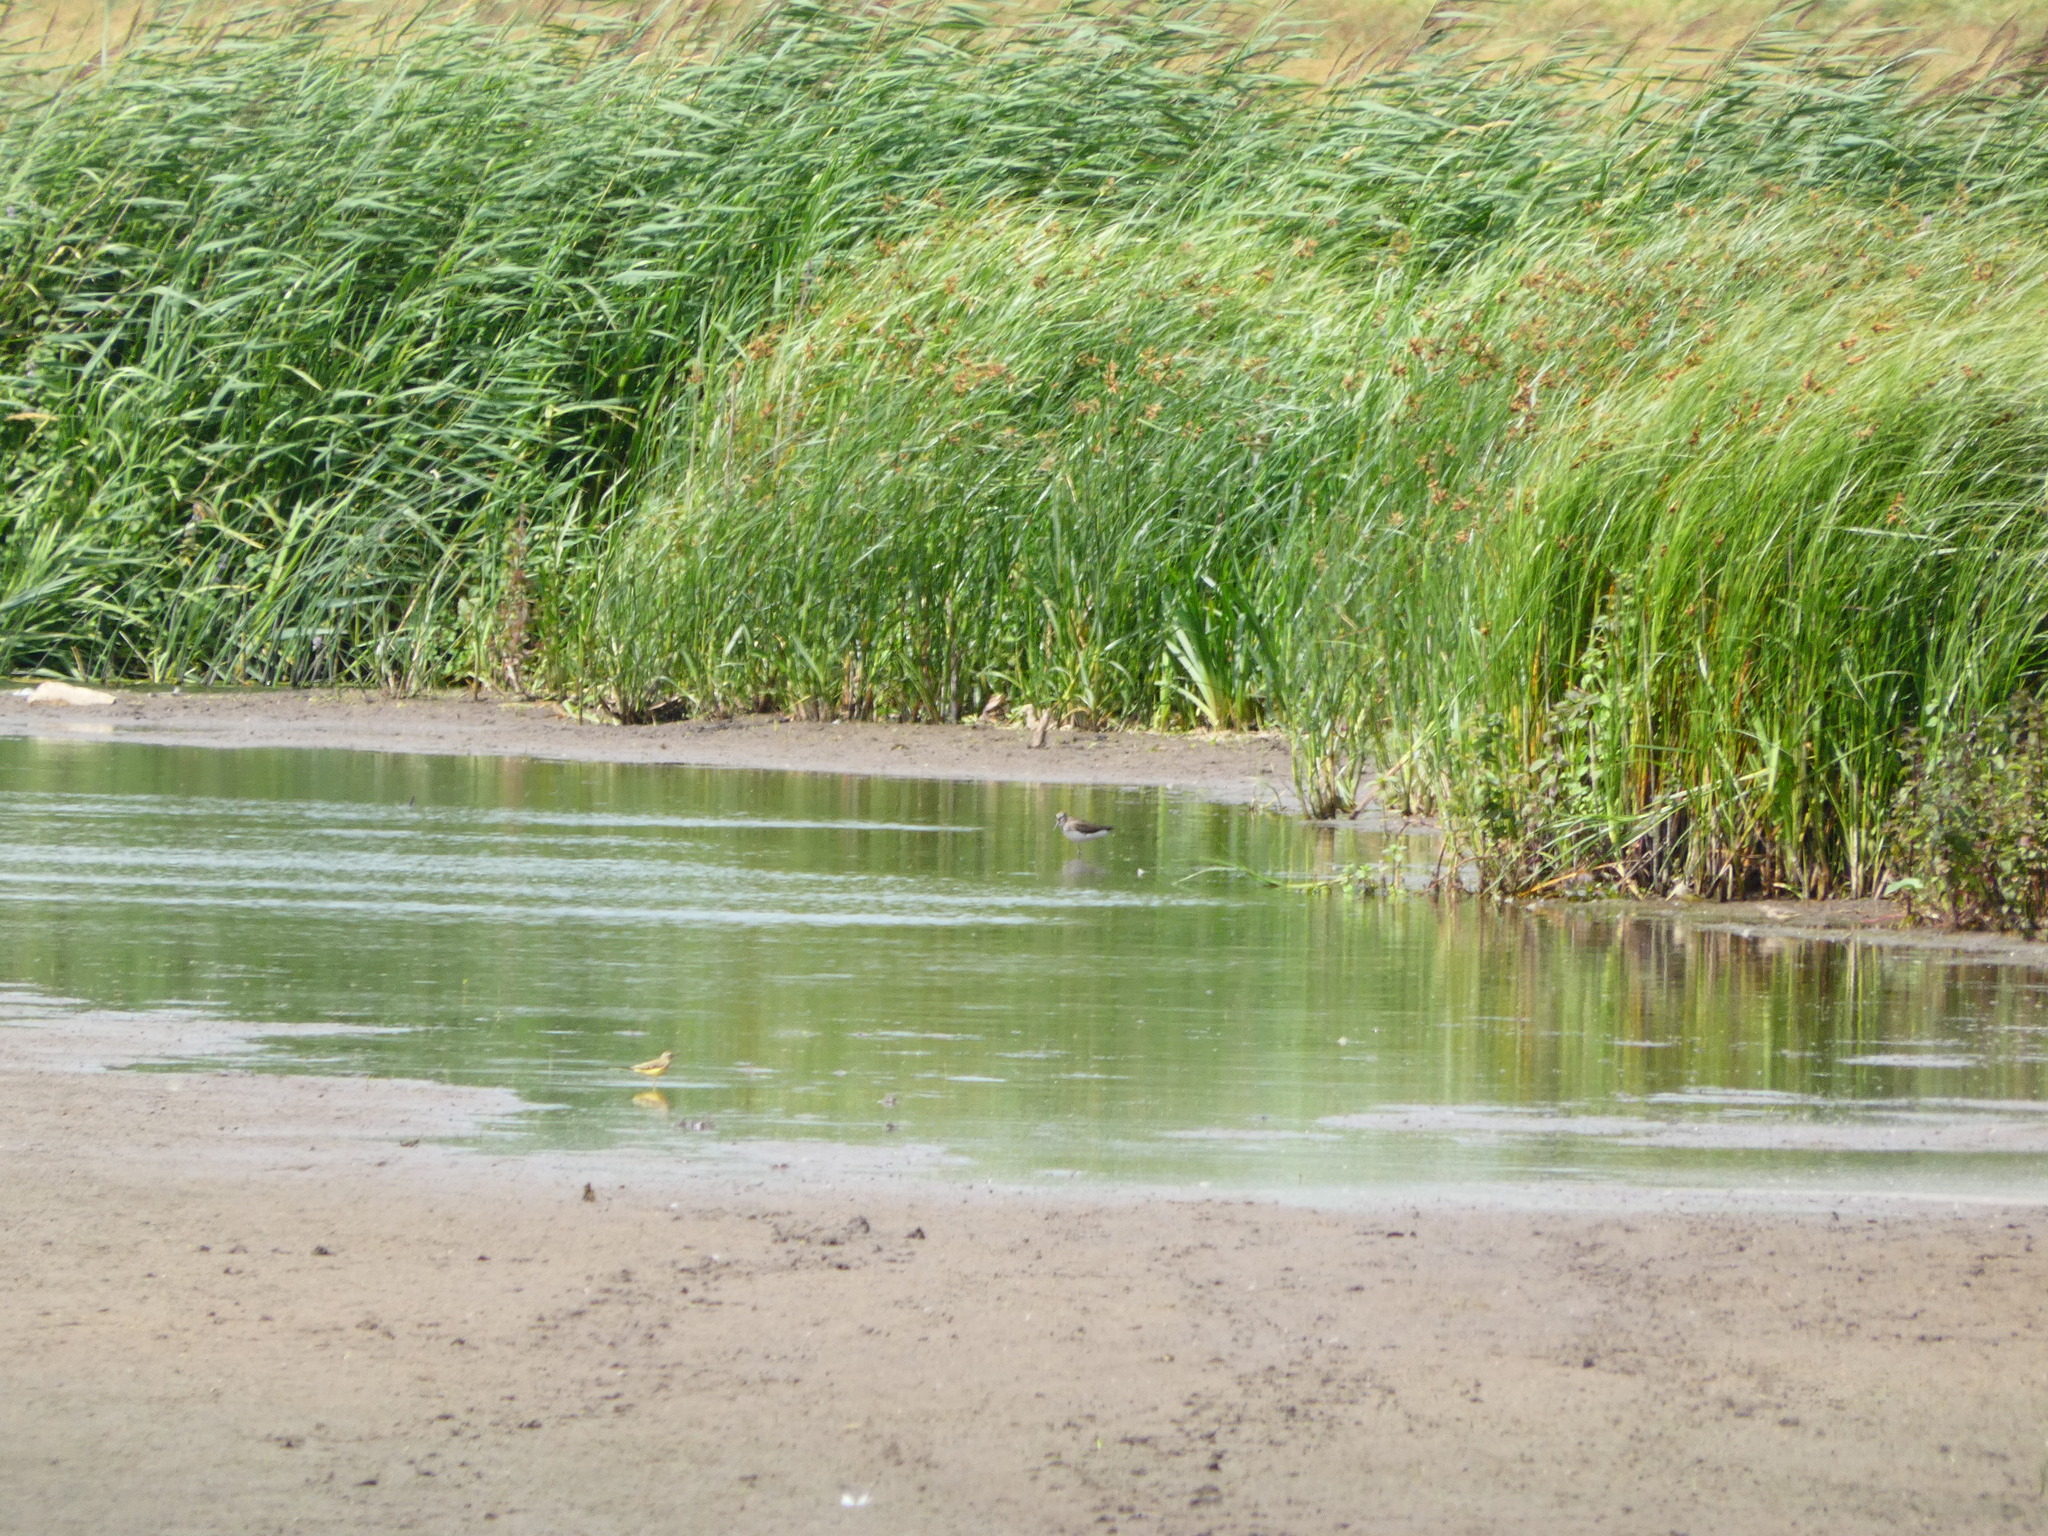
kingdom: Animalia
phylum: Chordata
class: Aves
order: Charadriiformes
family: Scolopacidae
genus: Tringa
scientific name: Tringa ochropus
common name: Green sandpiper
